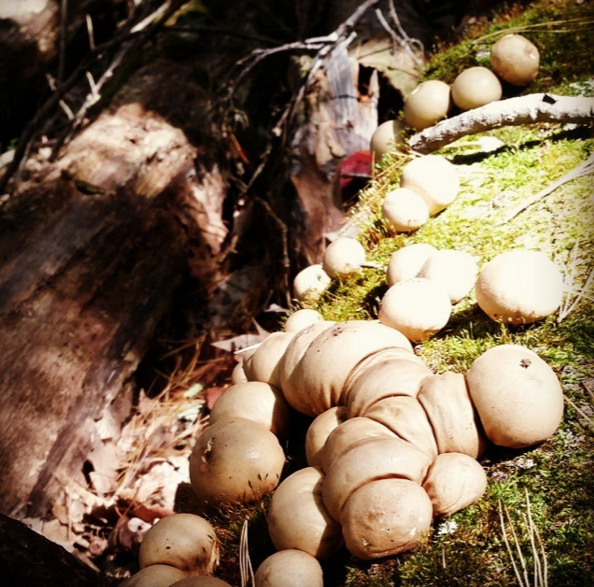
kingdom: Fungi
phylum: Basidiomycota
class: Agaricomycetes
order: Agaricales
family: Lycoperdaceae
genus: Apioperdon
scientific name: Apioperdon pyriforme
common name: Pear-shaped puffball
